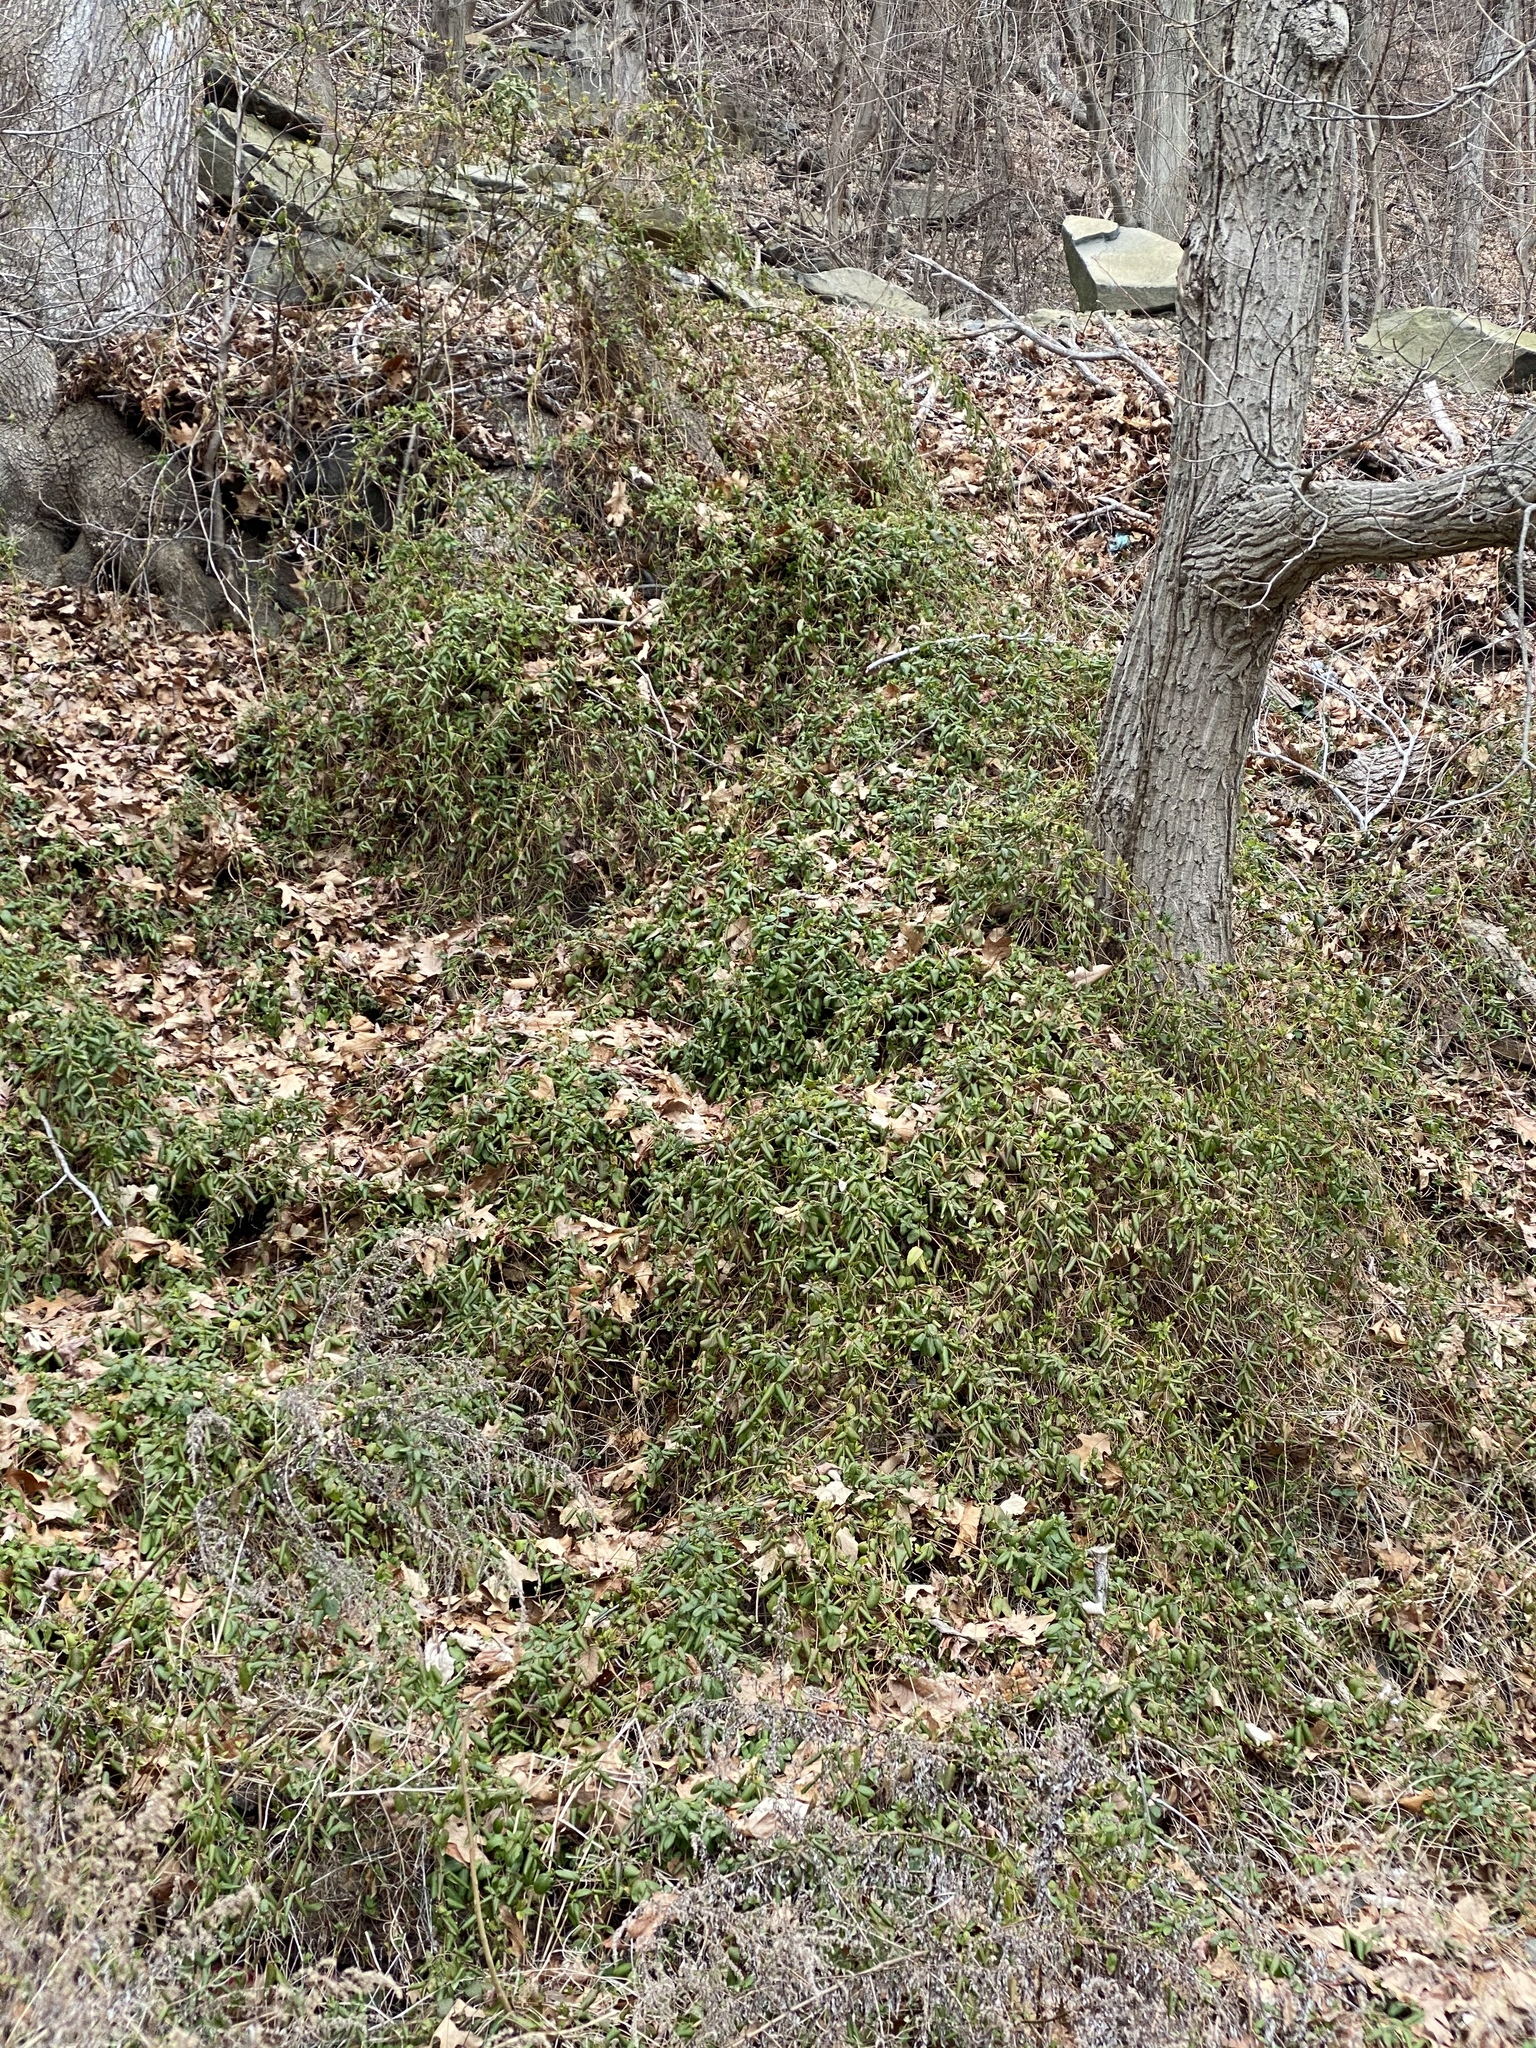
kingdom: Plantae
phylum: Tracheophyta
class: Magnoliopsida
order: Dipsacales
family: Caprifoliaceae
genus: Lonicera
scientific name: Lonicera japonica
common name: Japanese honeysuckle
